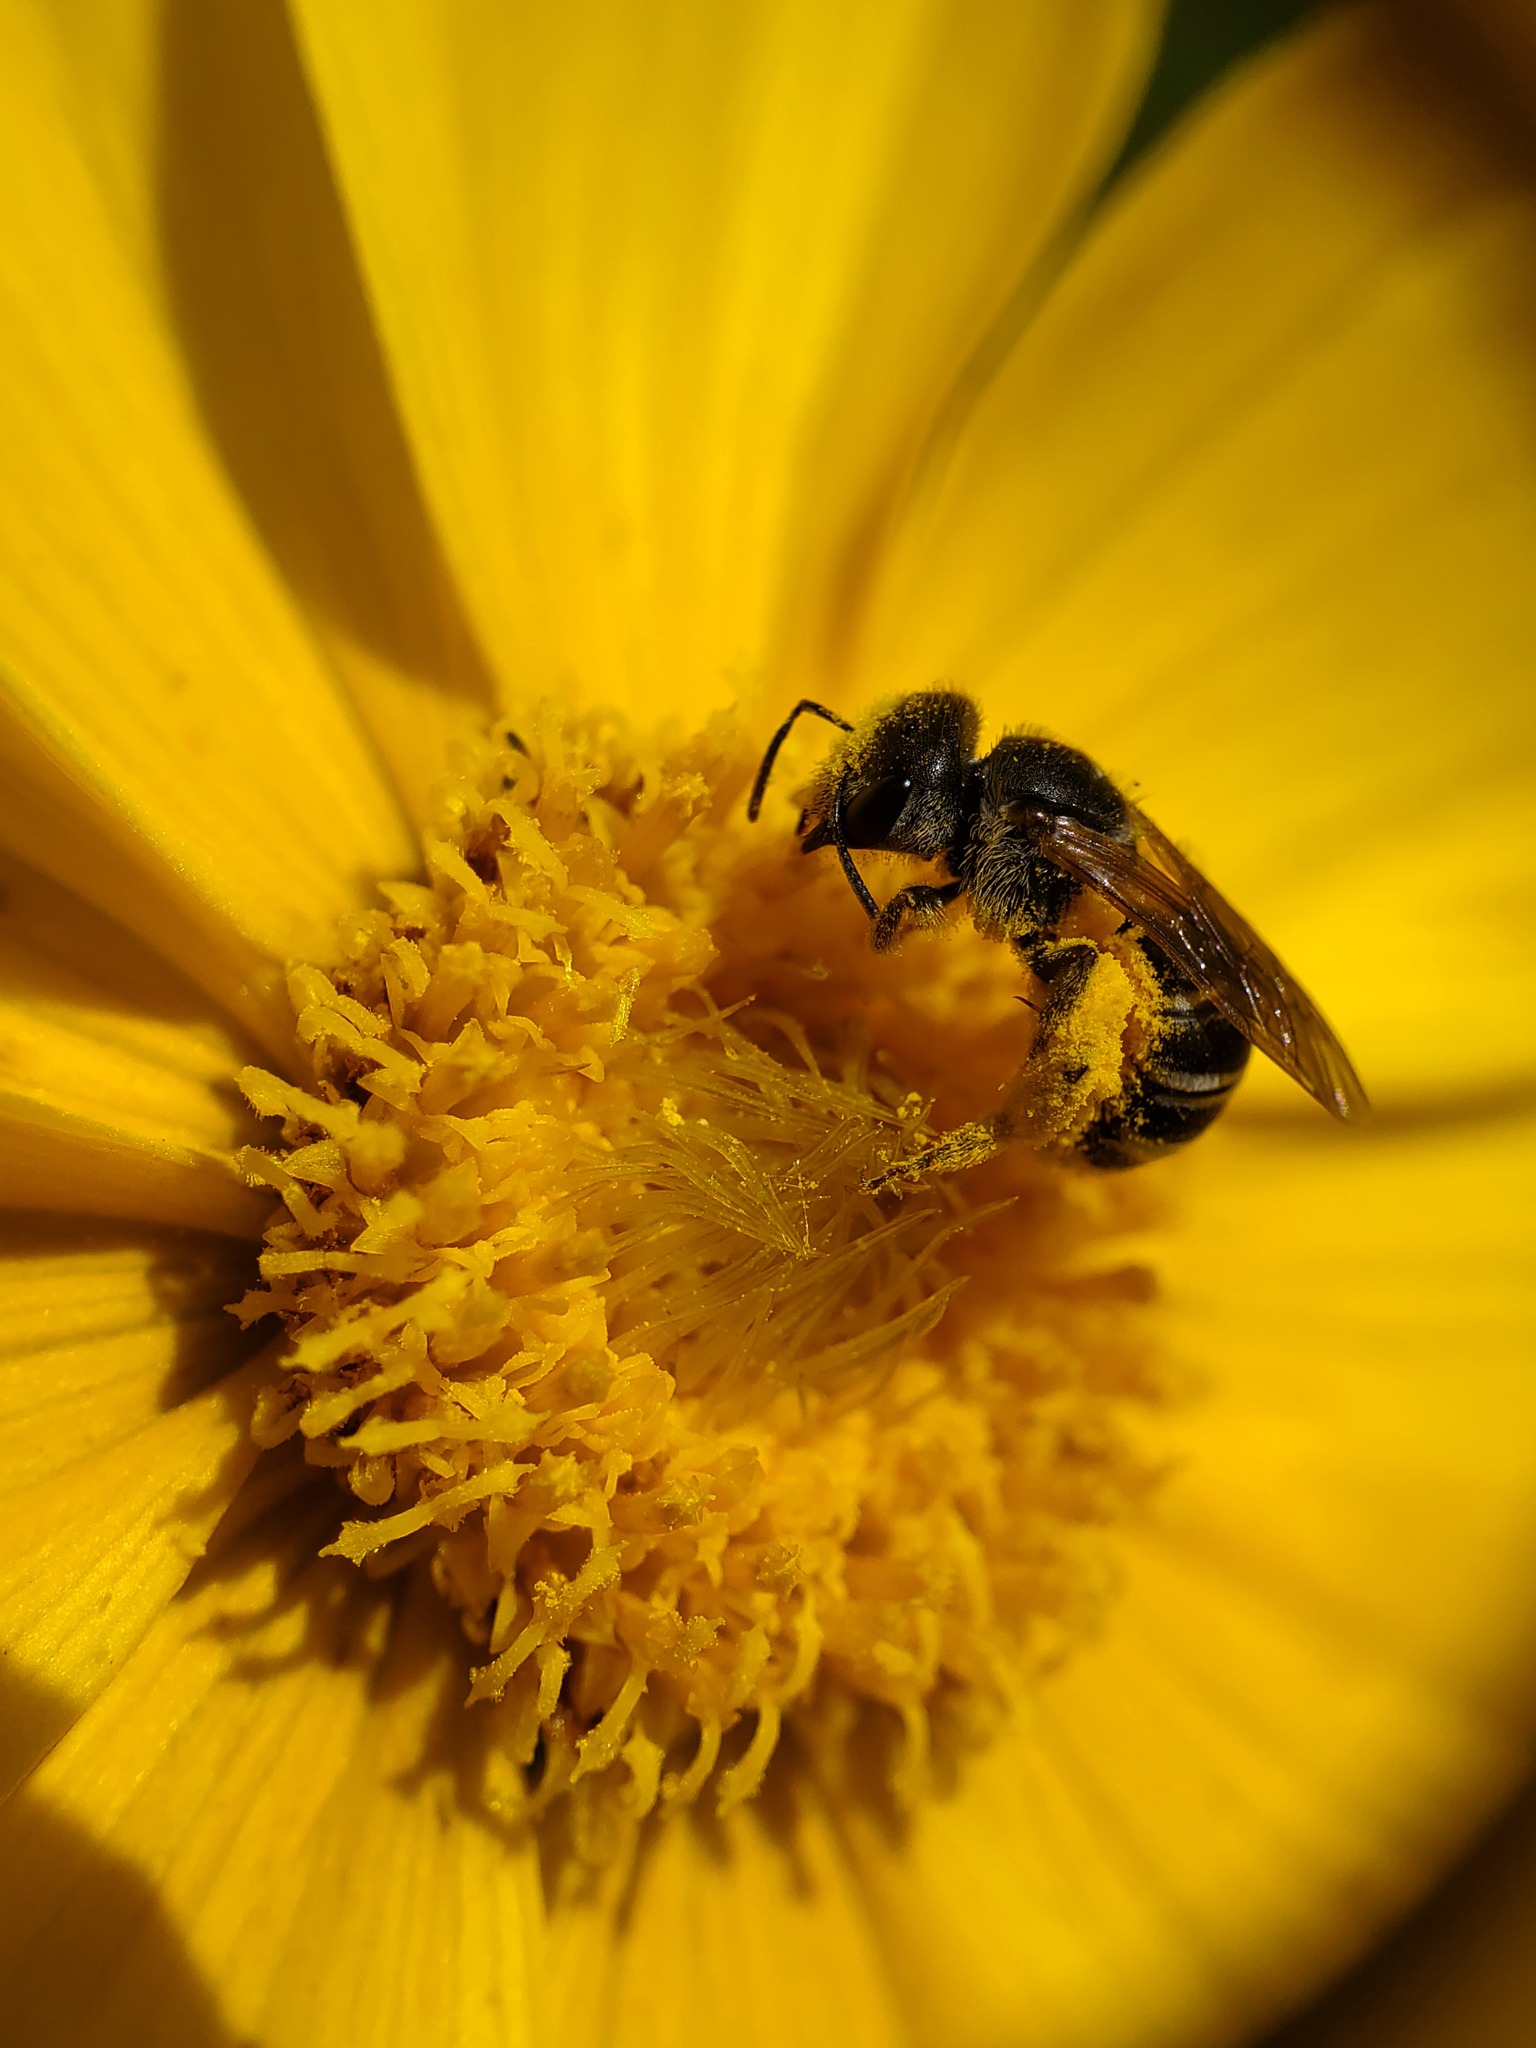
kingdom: Animalia
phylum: Arthropoda
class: Insecta
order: Hymenoptera
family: Halictidae
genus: Halictus
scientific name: Halictus ligatus
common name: Ligated furrow bee
